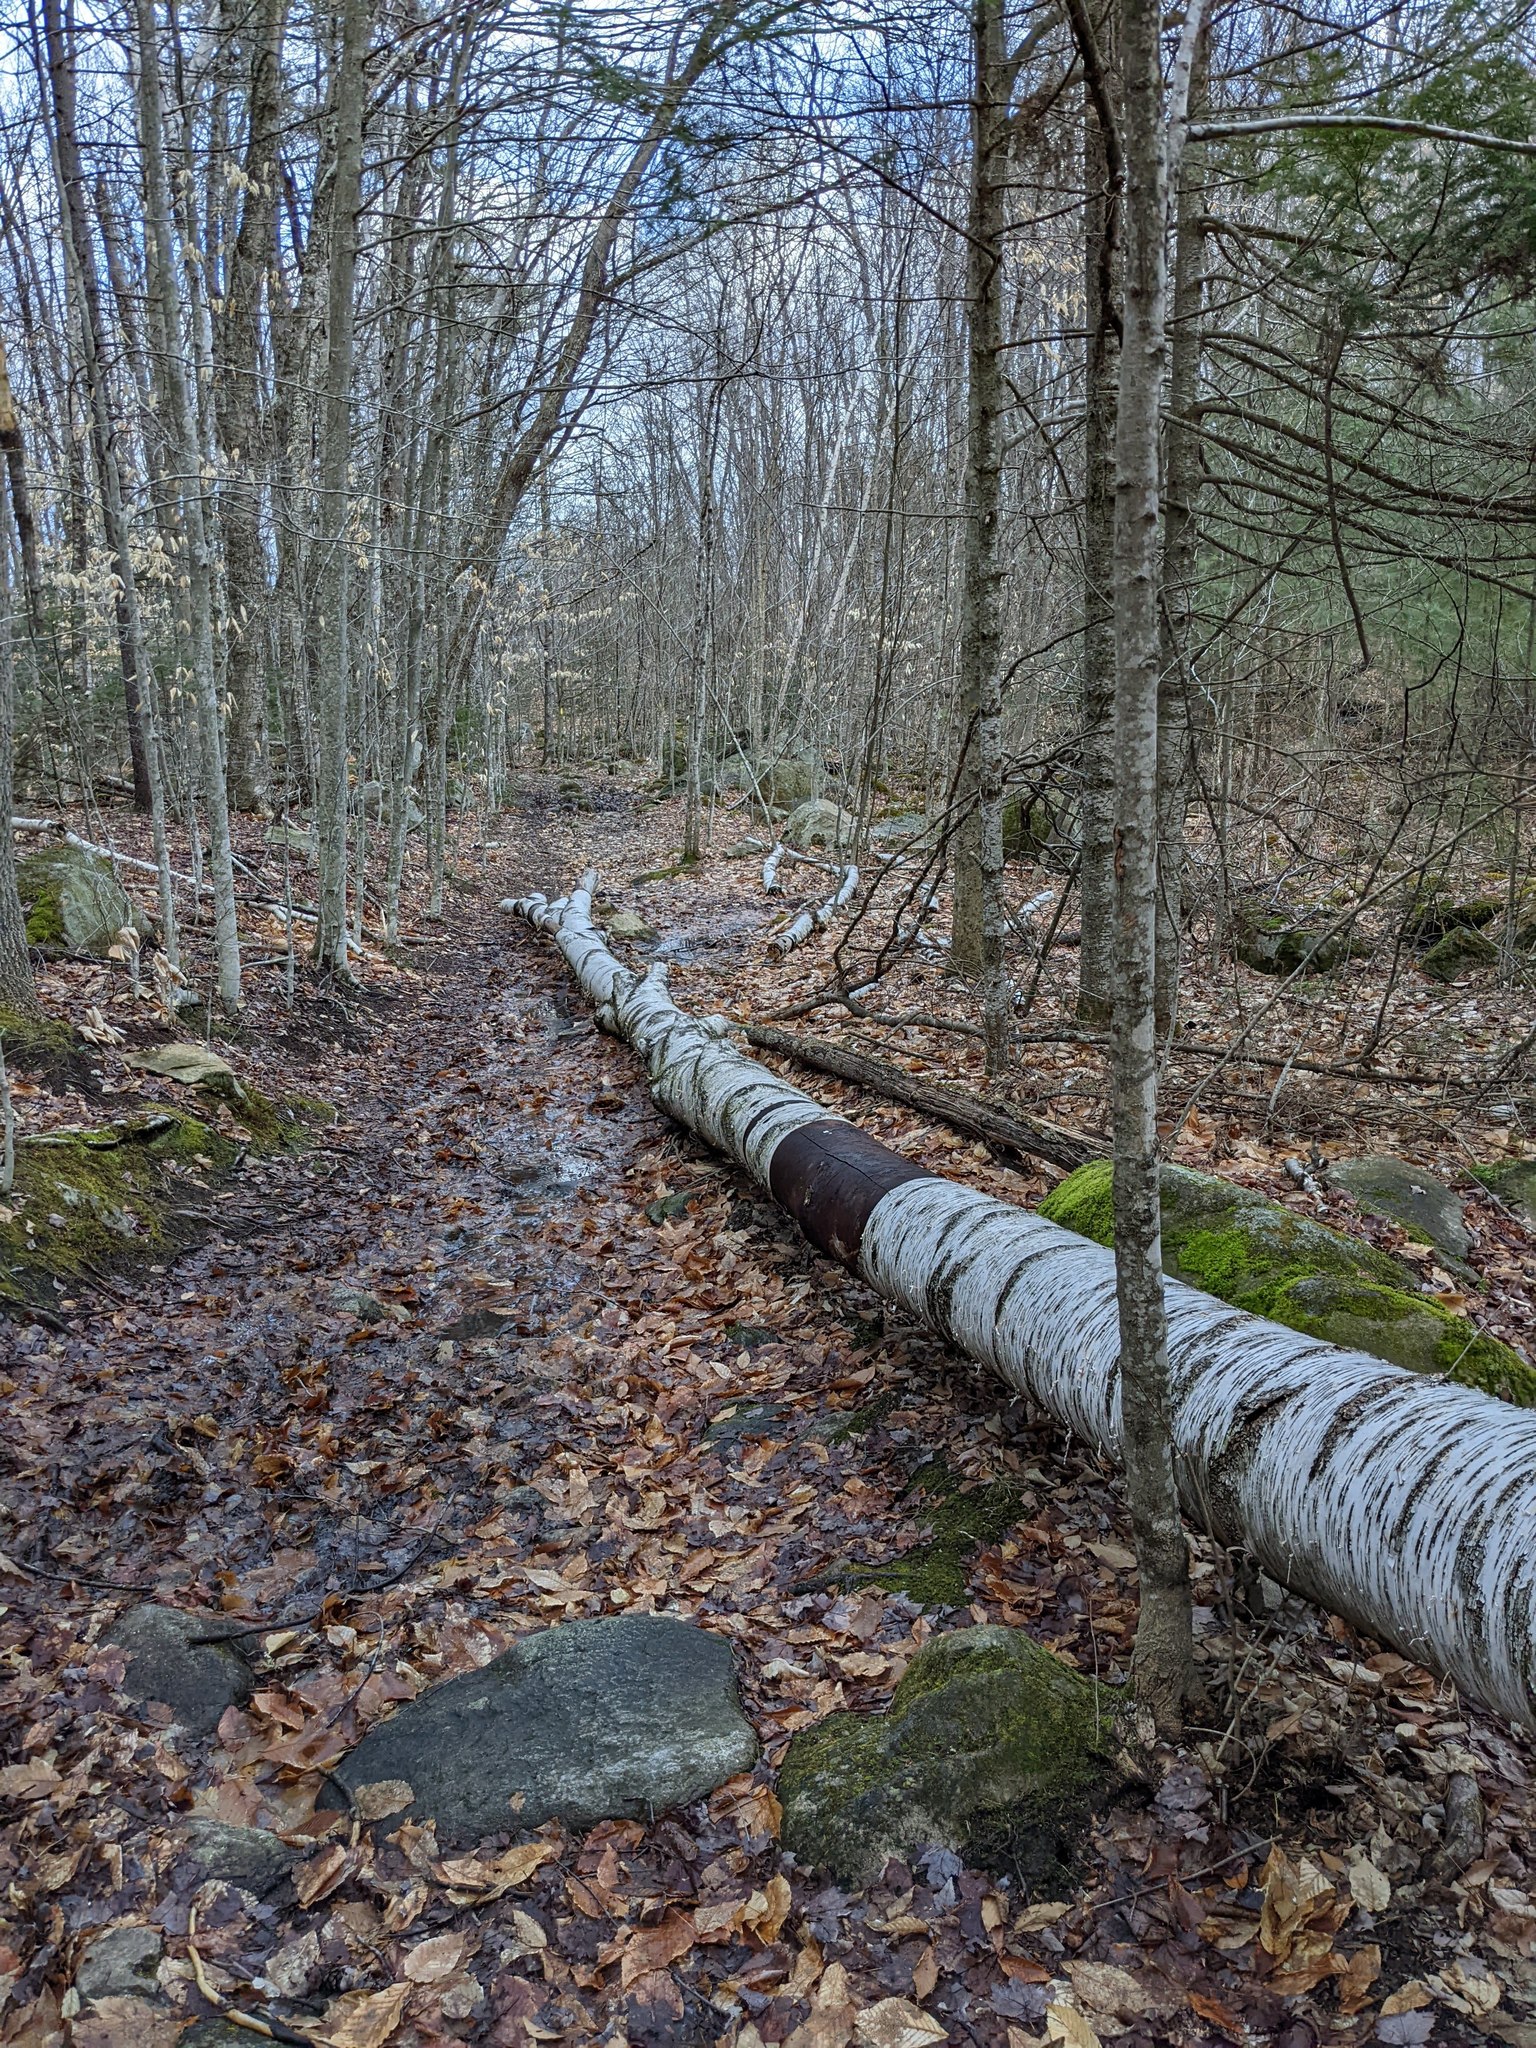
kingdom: Plantae
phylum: Tracheophyta
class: Magnoliopsida
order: Fagales
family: Betulaceae
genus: Betula
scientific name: Betula papyrifera
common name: Paper birch
